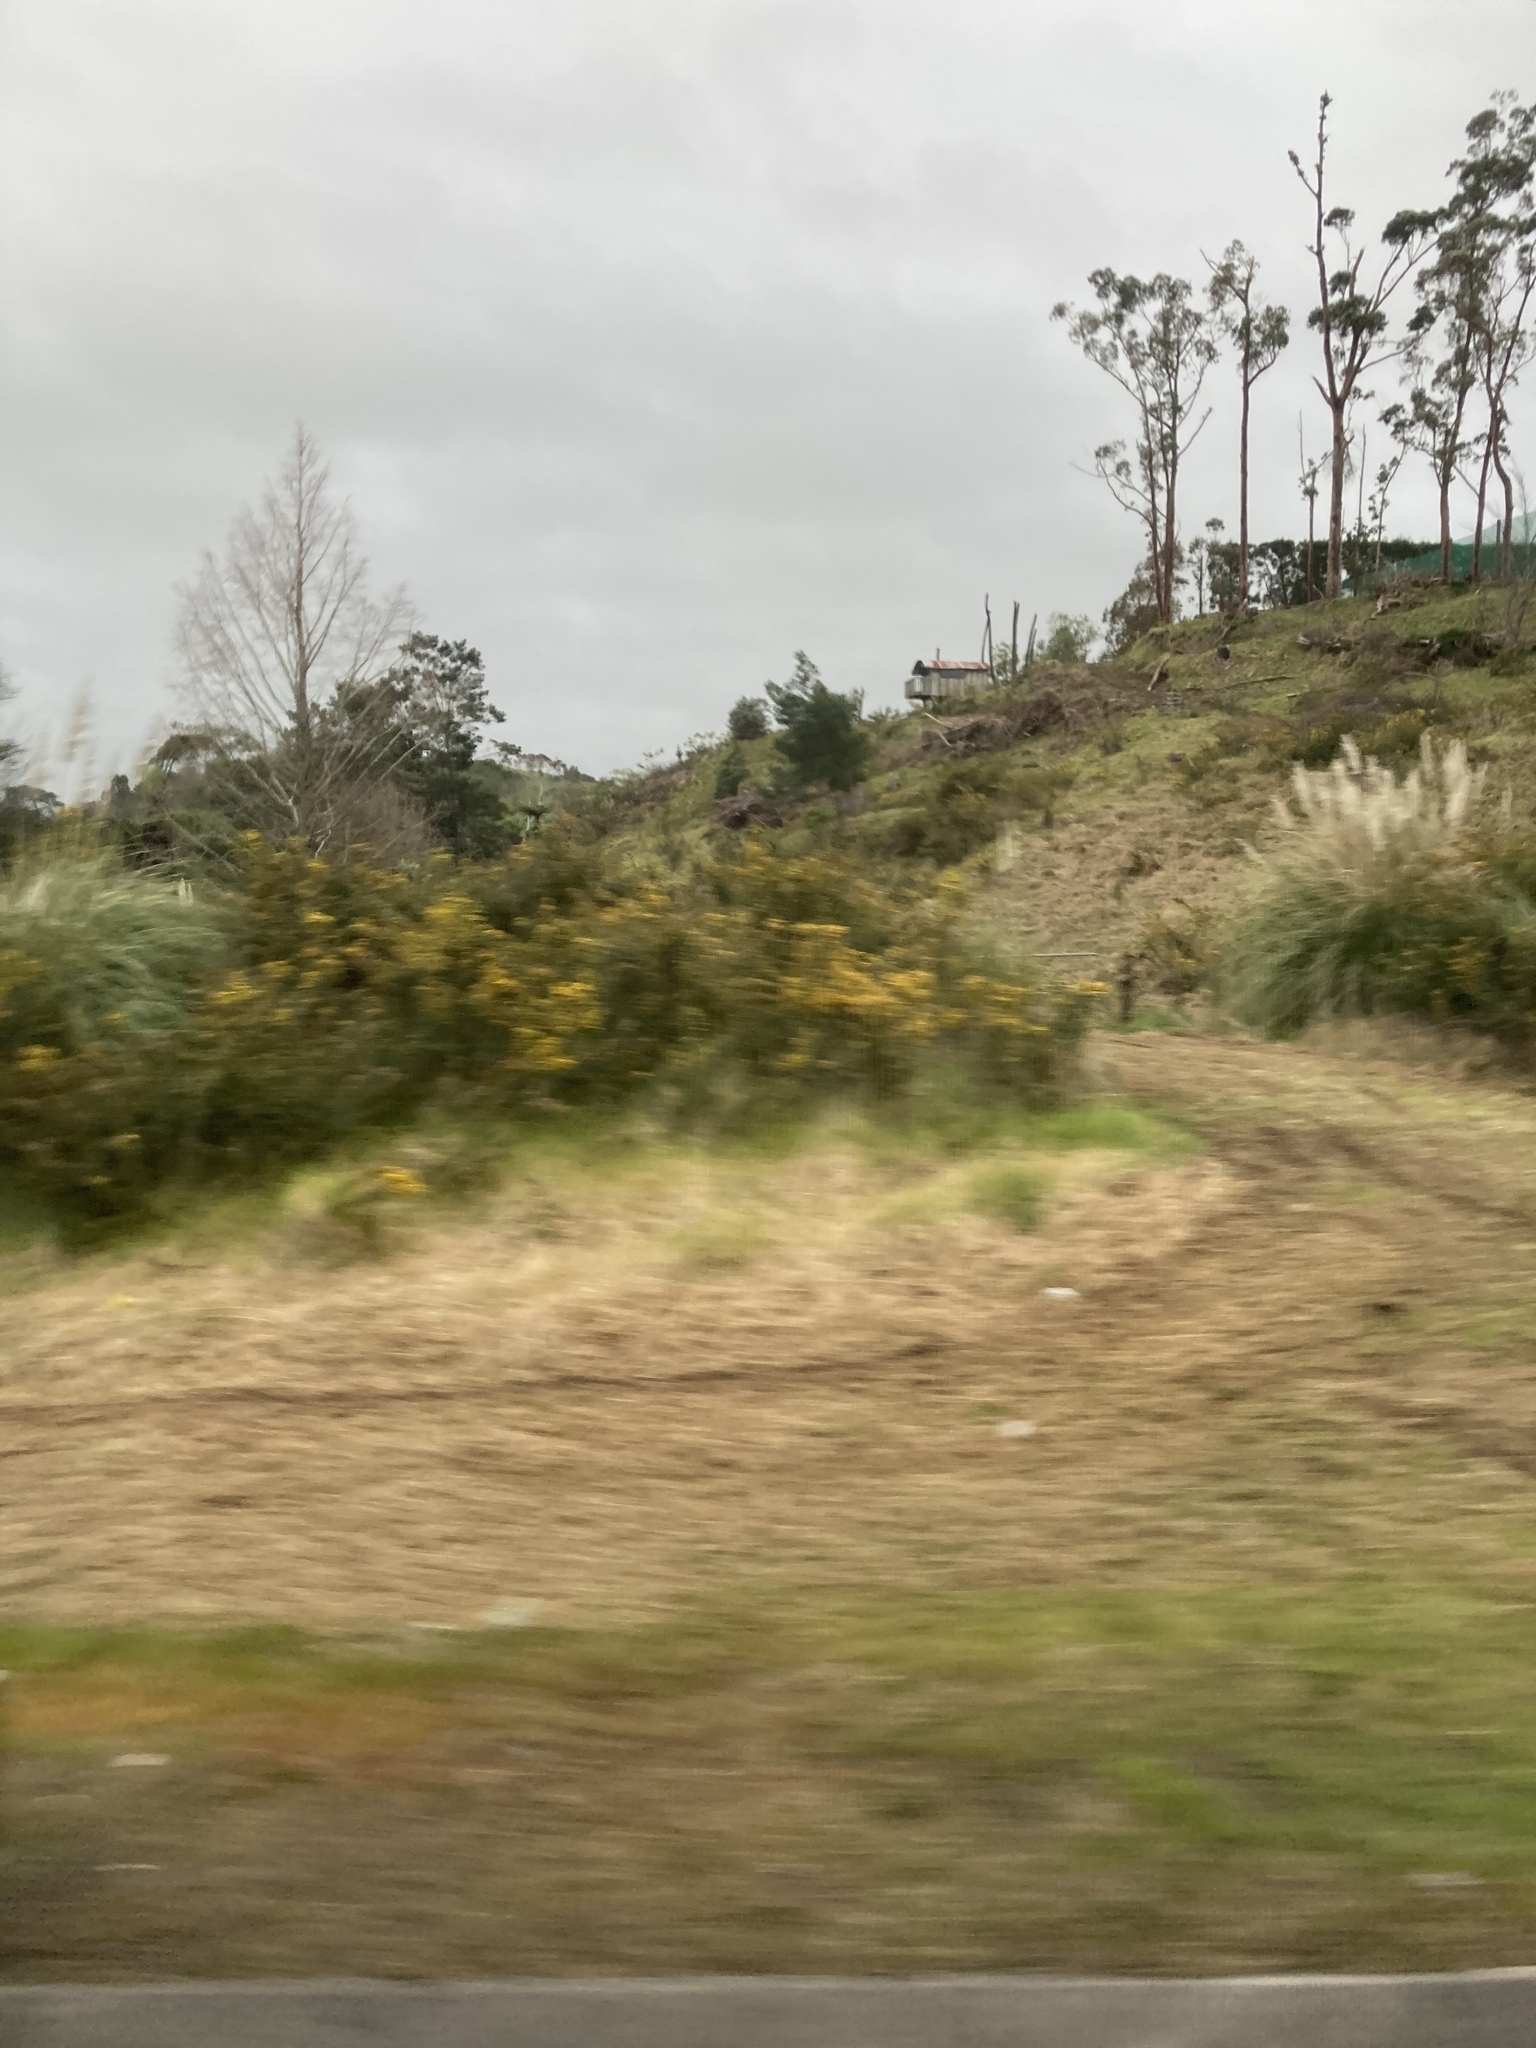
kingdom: Plantae
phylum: Tracheophyta
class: Magnoliopsida
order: Fabales
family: Fabaceae
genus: Ulex
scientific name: Ulex europaeus
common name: Common gorse
